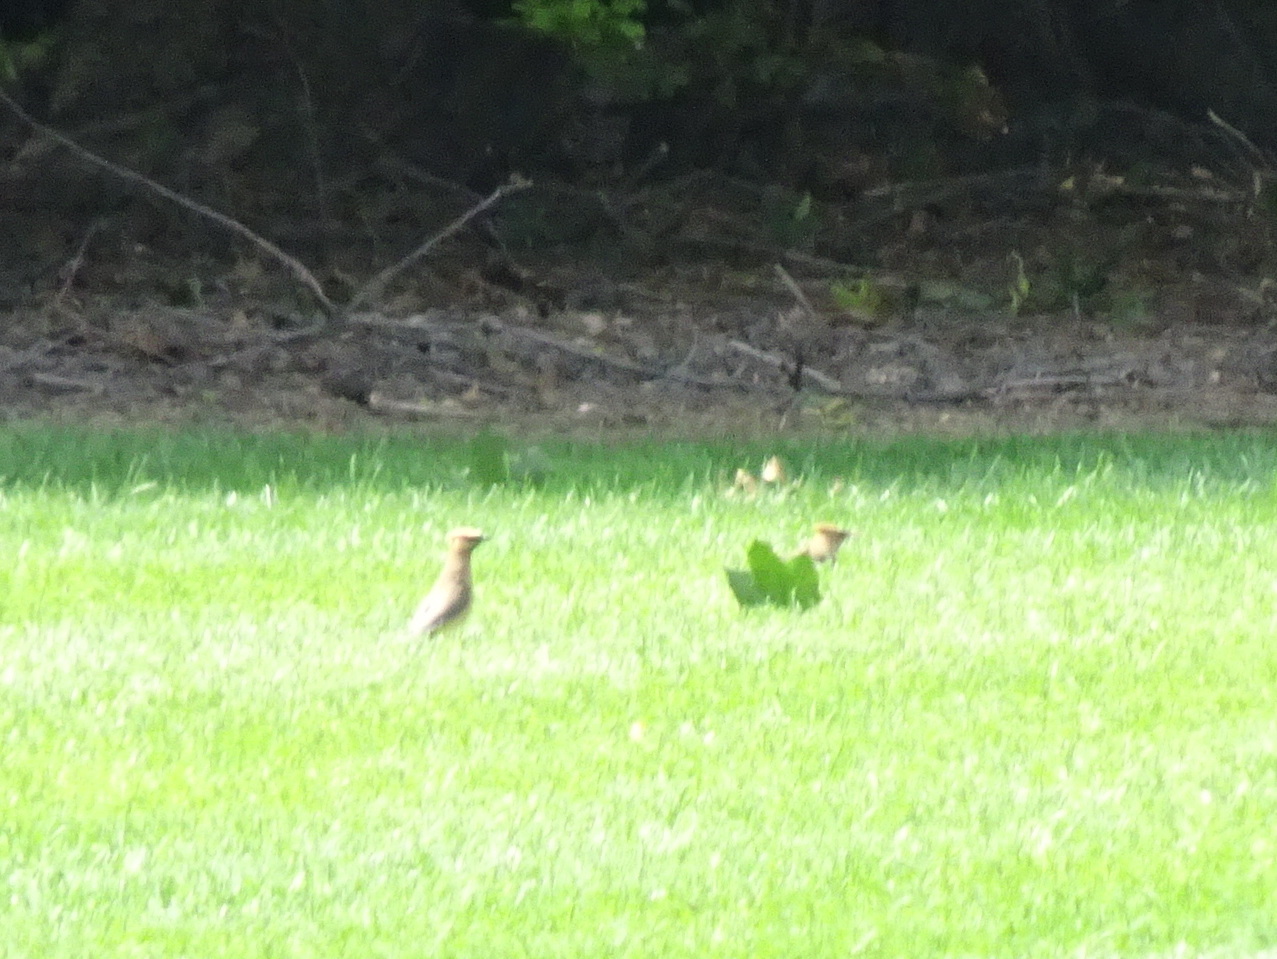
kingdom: Animalia
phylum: Chordata
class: Aves
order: Passeriformes
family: Bombycillidae
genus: Bombycilla
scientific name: Bombycilla cedrorum
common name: Cedar waxwing
